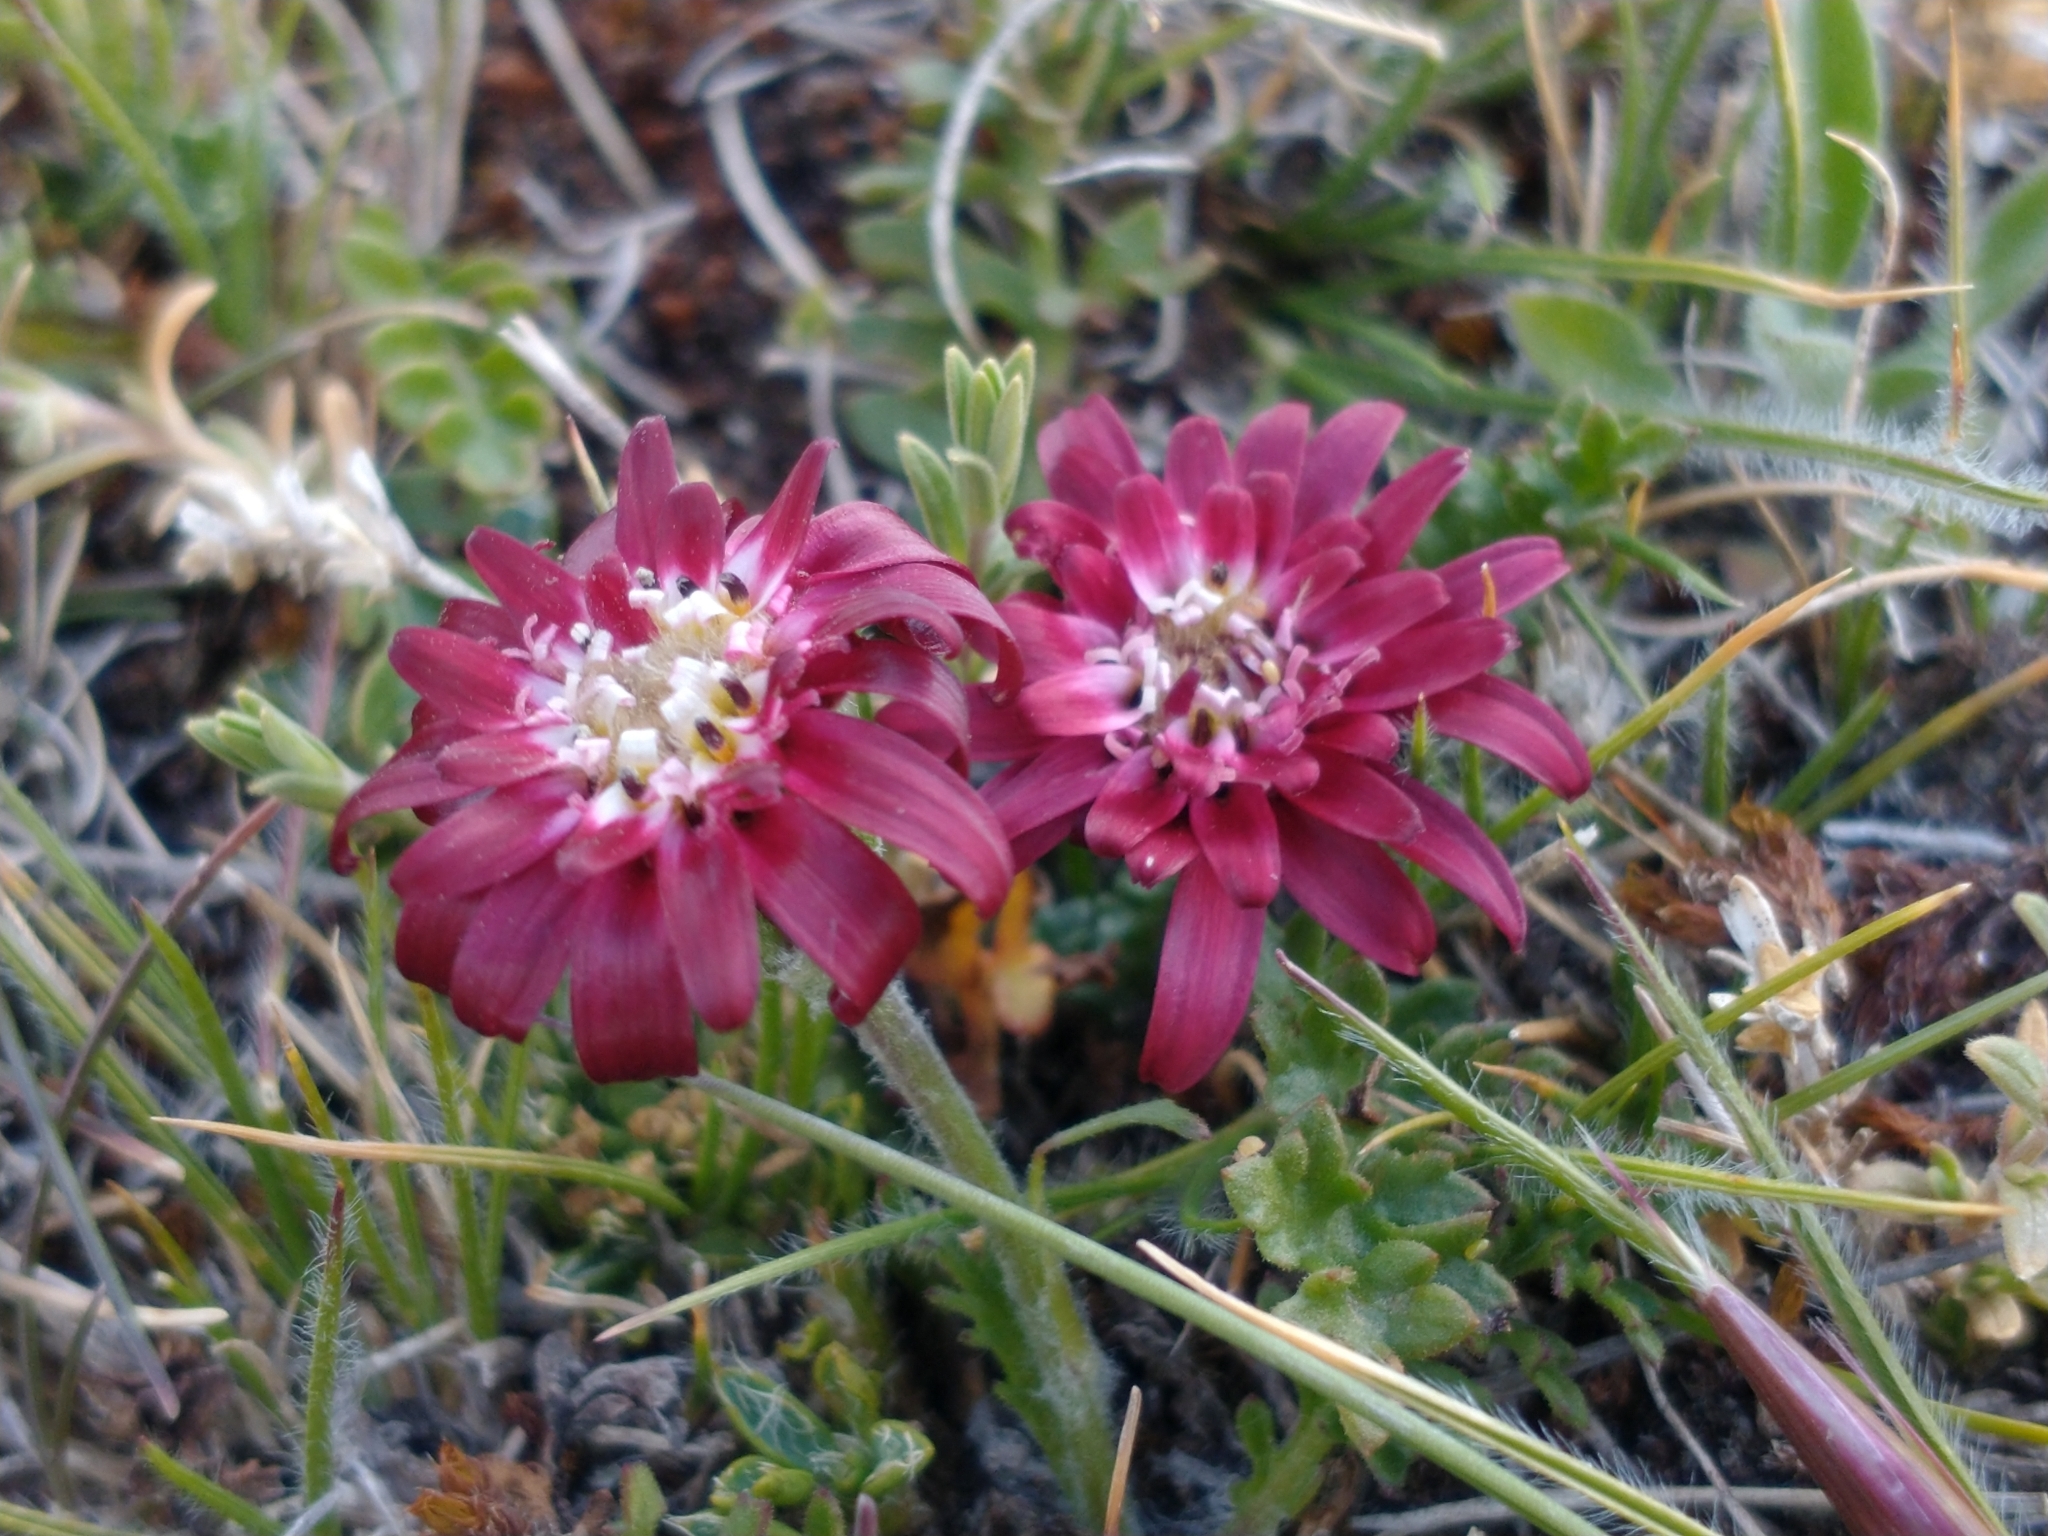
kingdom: Plantae
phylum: Tracheophyta
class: Magnoliopsida
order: Asterales
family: Asteraceae
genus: Leucheria
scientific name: Leucheria purpurea
